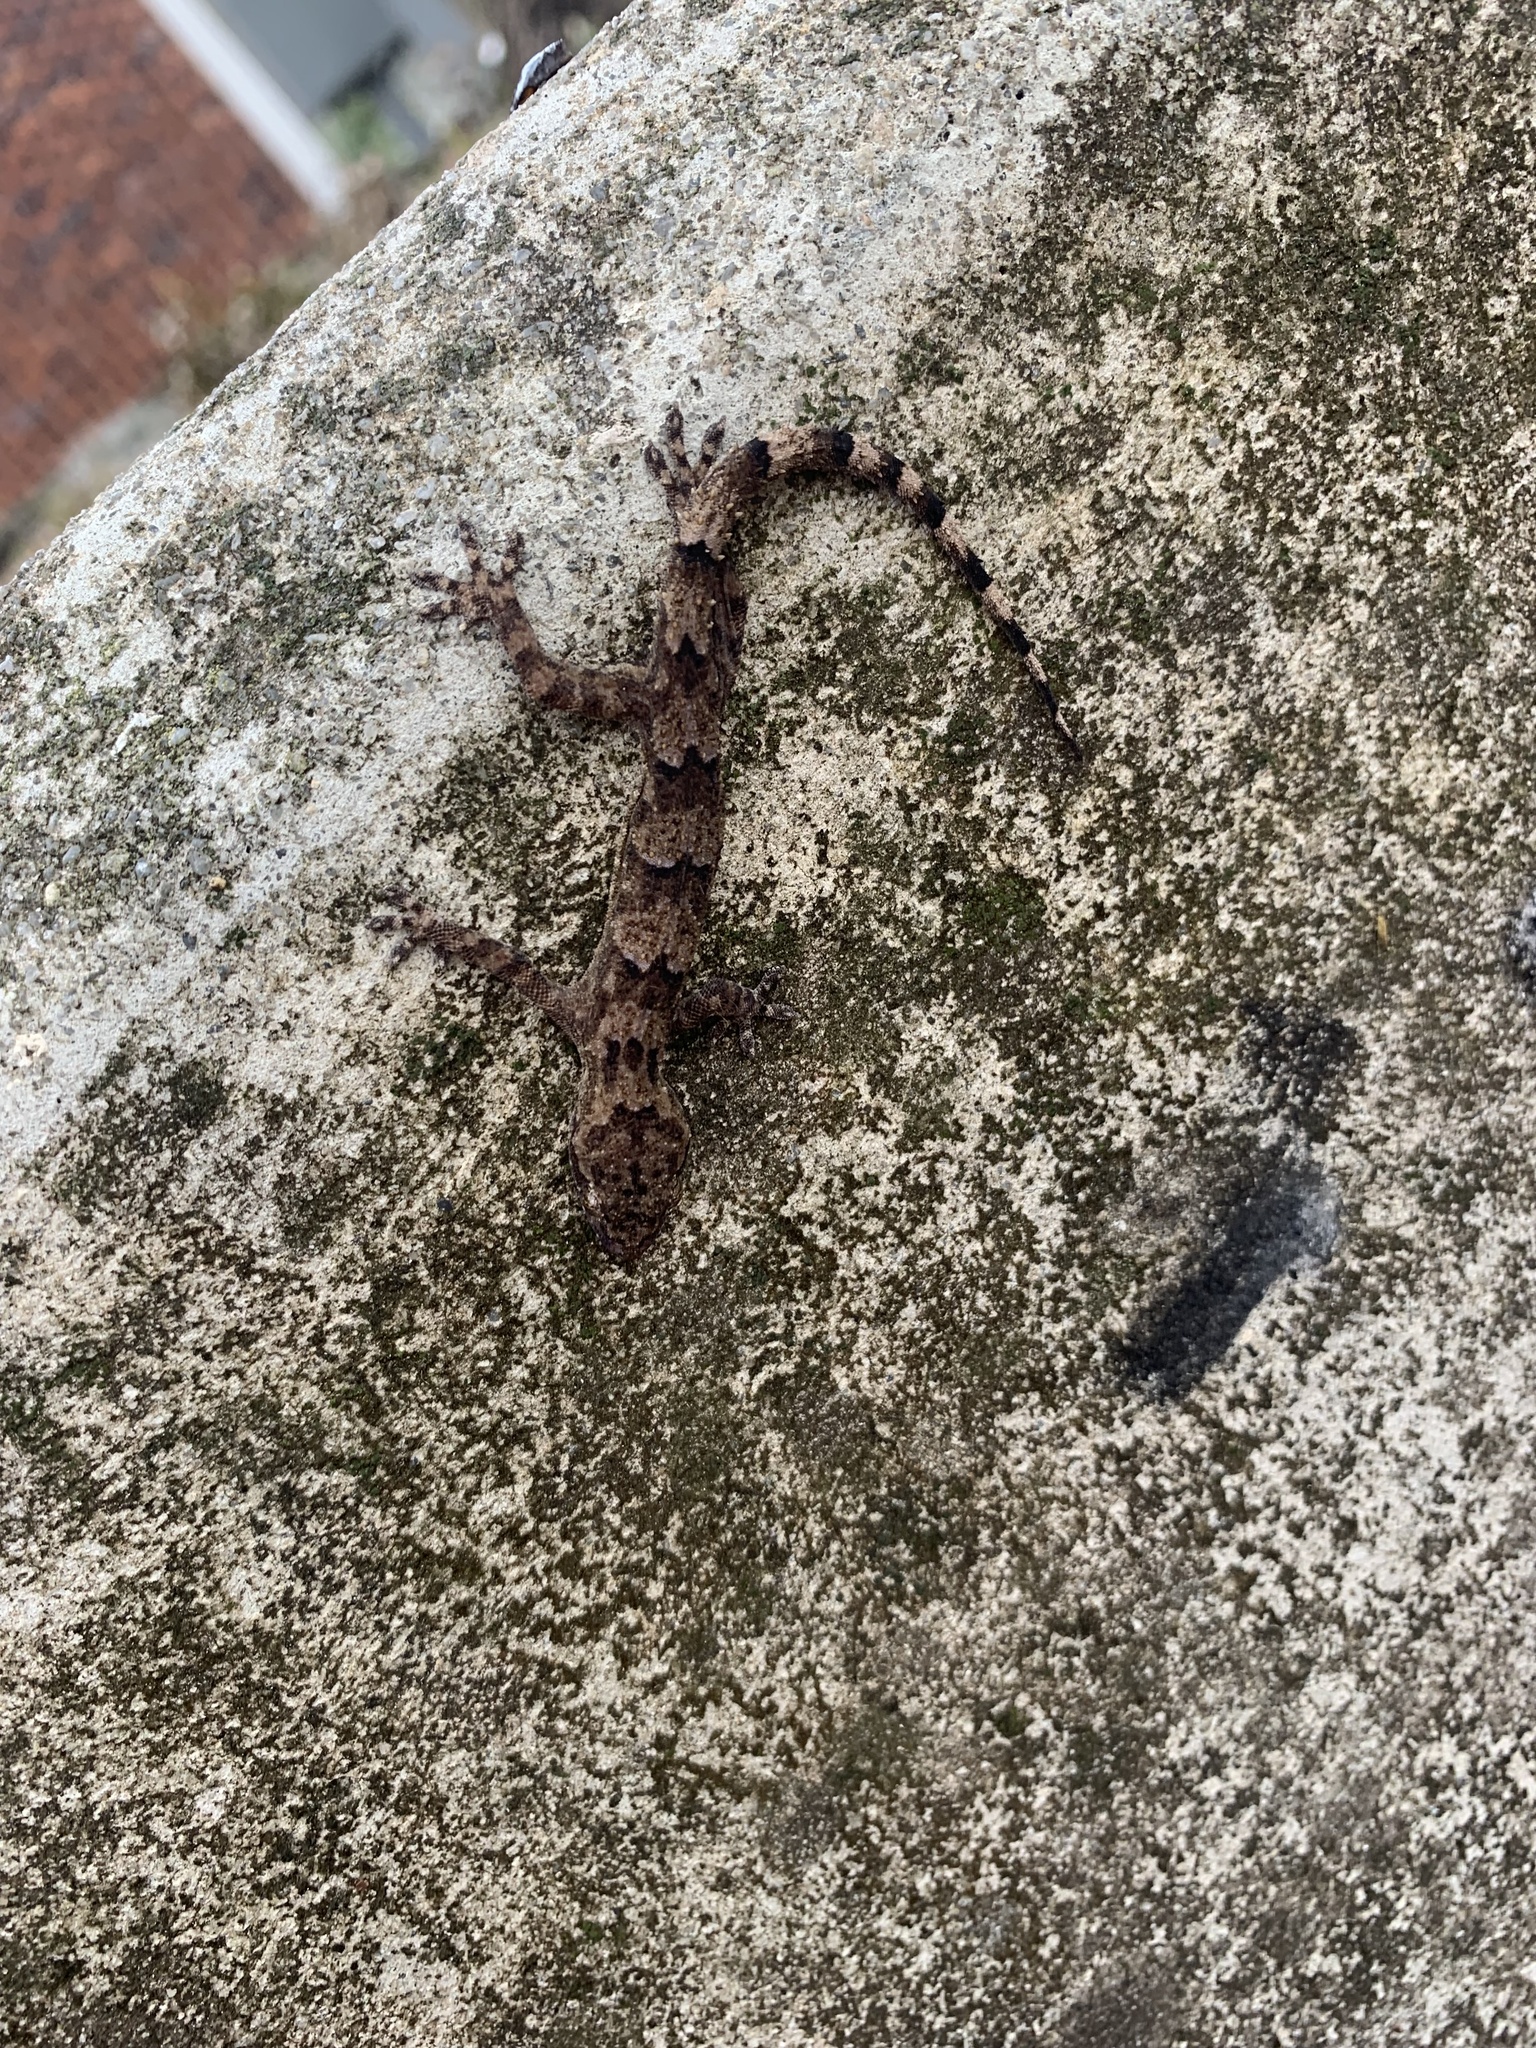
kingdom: Animalia
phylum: Chordata
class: Squamata
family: Gekkonidae
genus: Hemidactylus
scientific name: Hemidactylus mabouia
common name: House gecko
